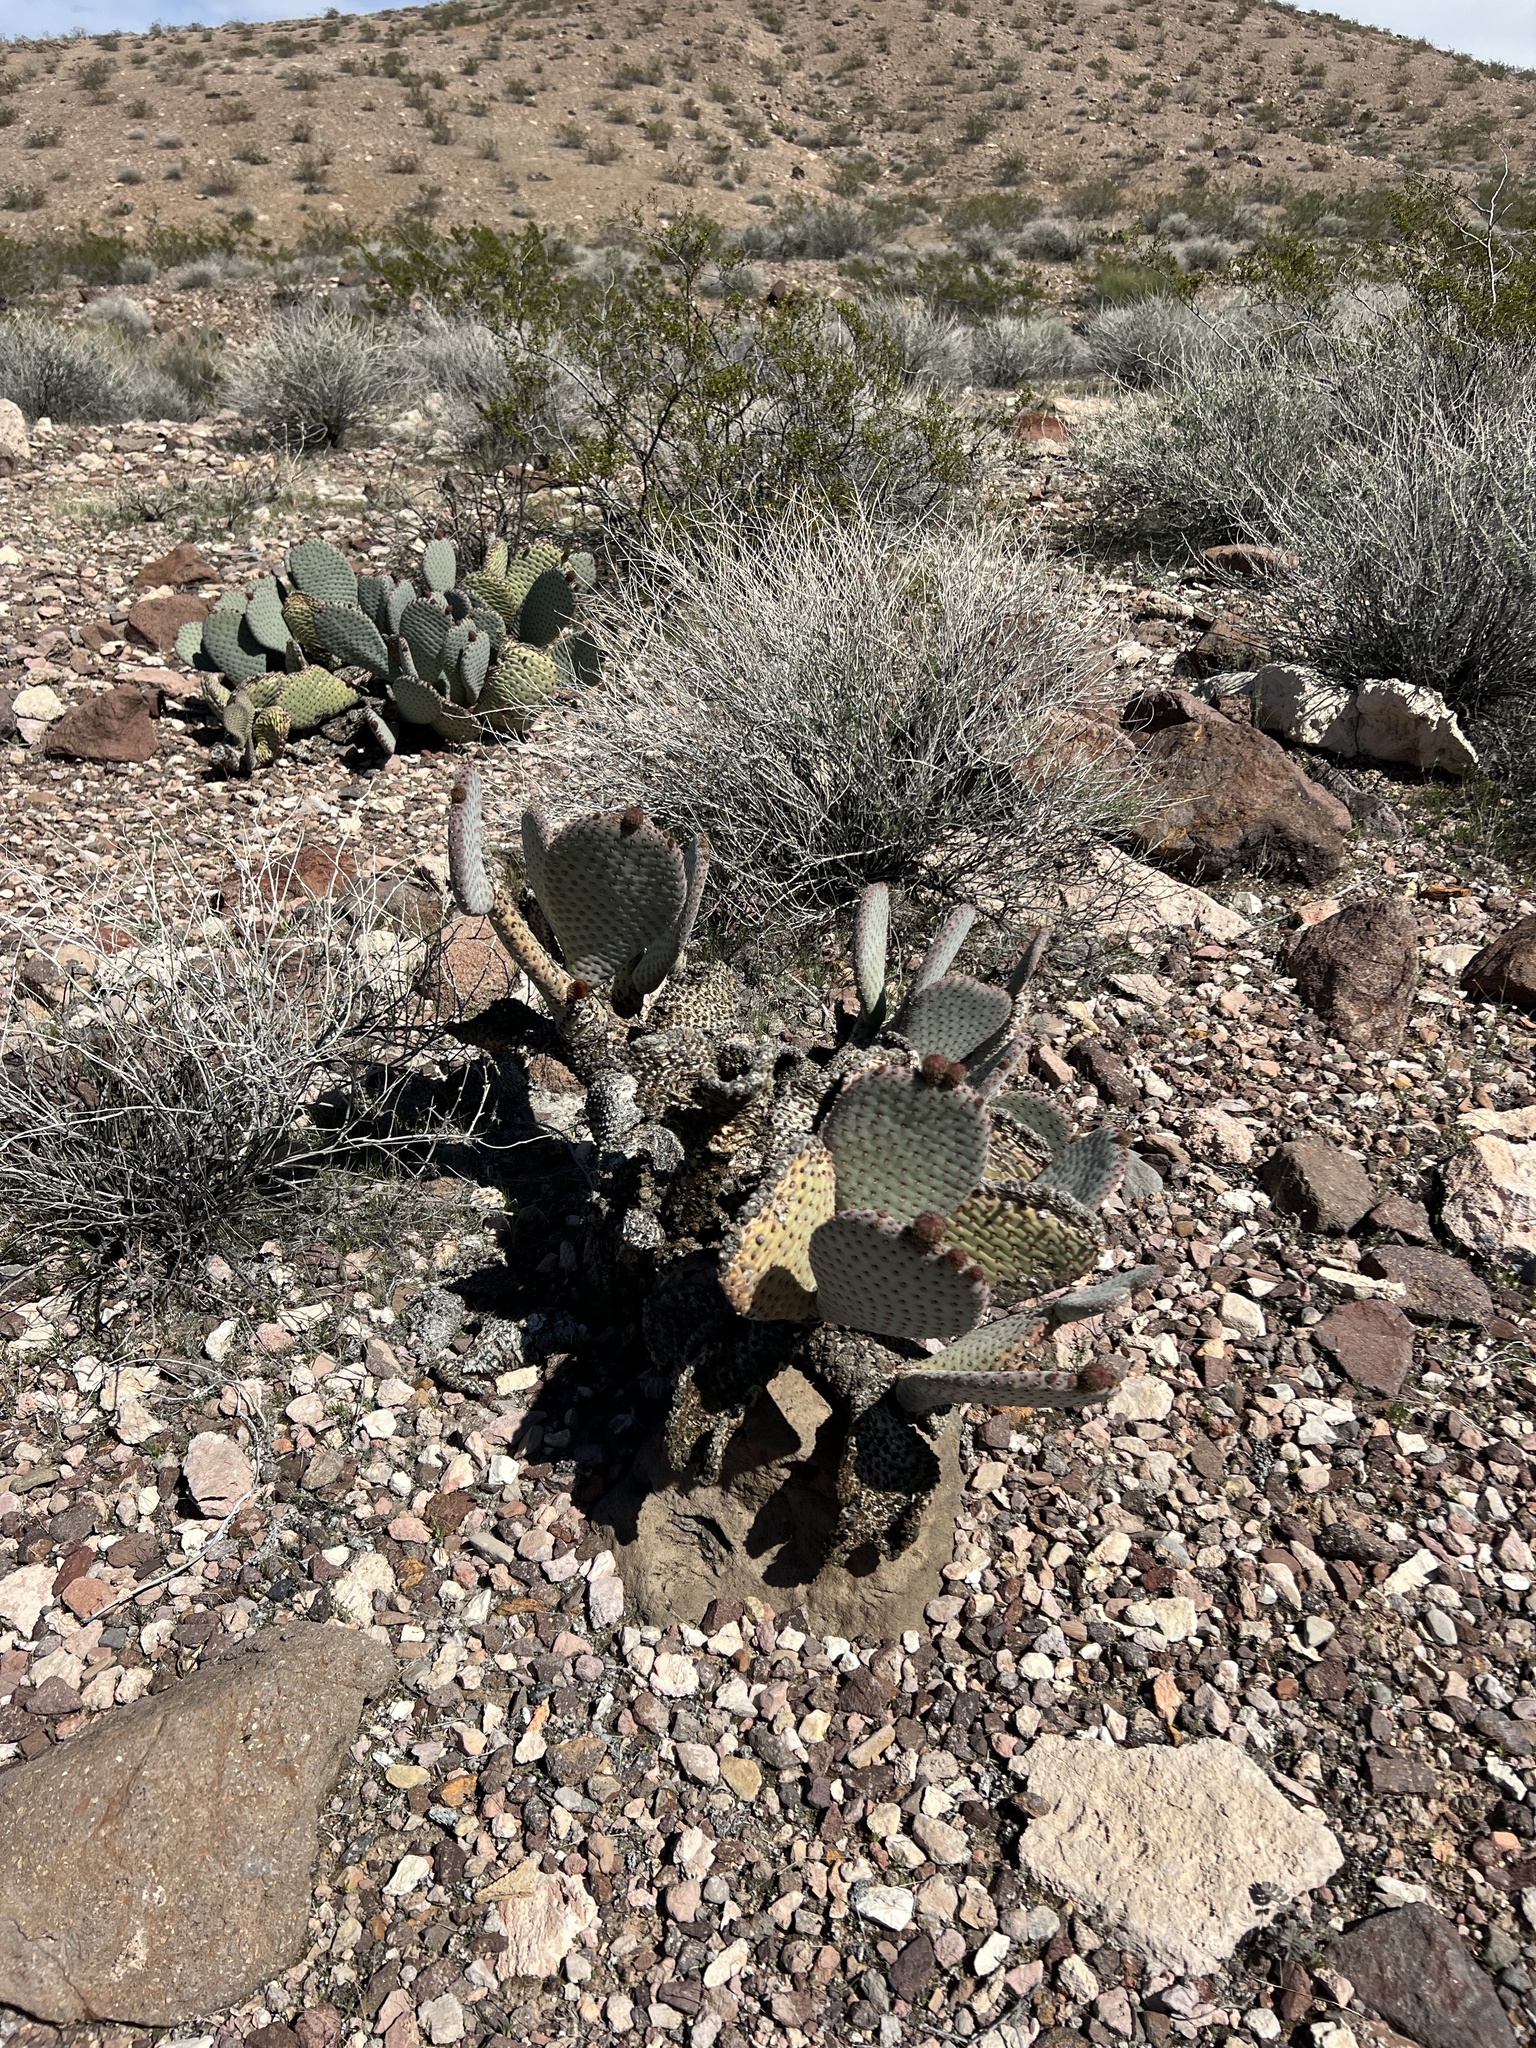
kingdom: Plantae
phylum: Tracheophyta
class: Magnoliopsida
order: Caryophyllales
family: Cactaceae
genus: Opuntia
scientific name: Opuntia basilaris
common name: Beavertail prickly-pear
